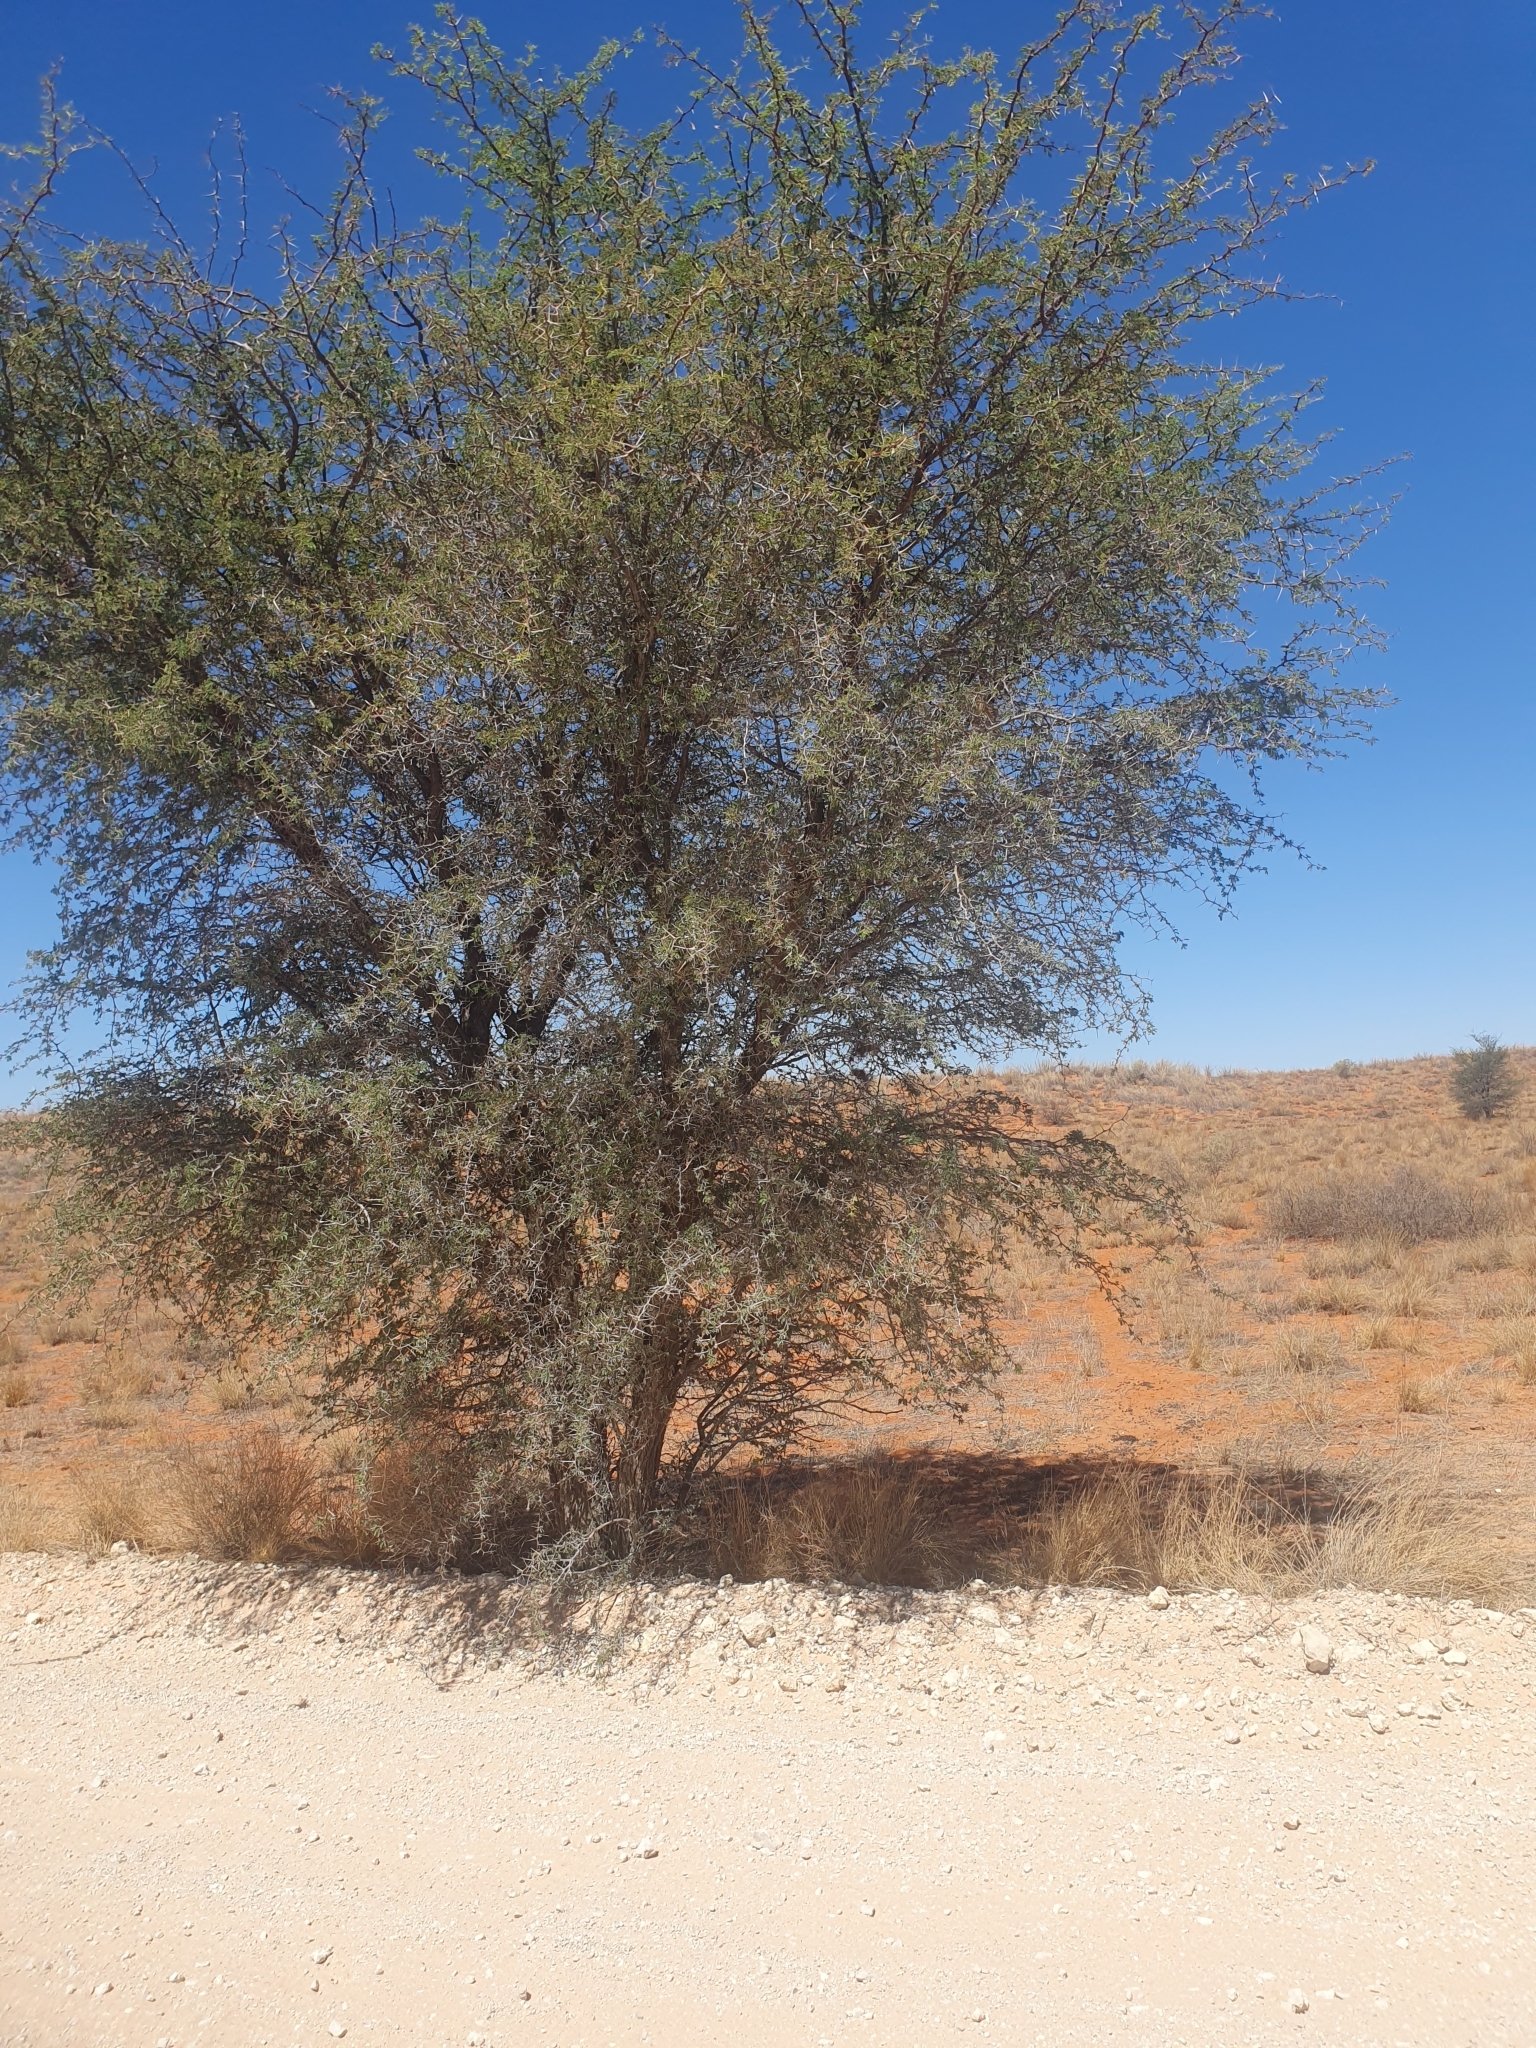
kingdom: Plantae
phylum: Tracheophyta
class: Magnoliopsida
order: Fabales
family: Fabaceae
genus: Vachellia
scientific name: Vachellia erioloba
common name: Camel thorn
